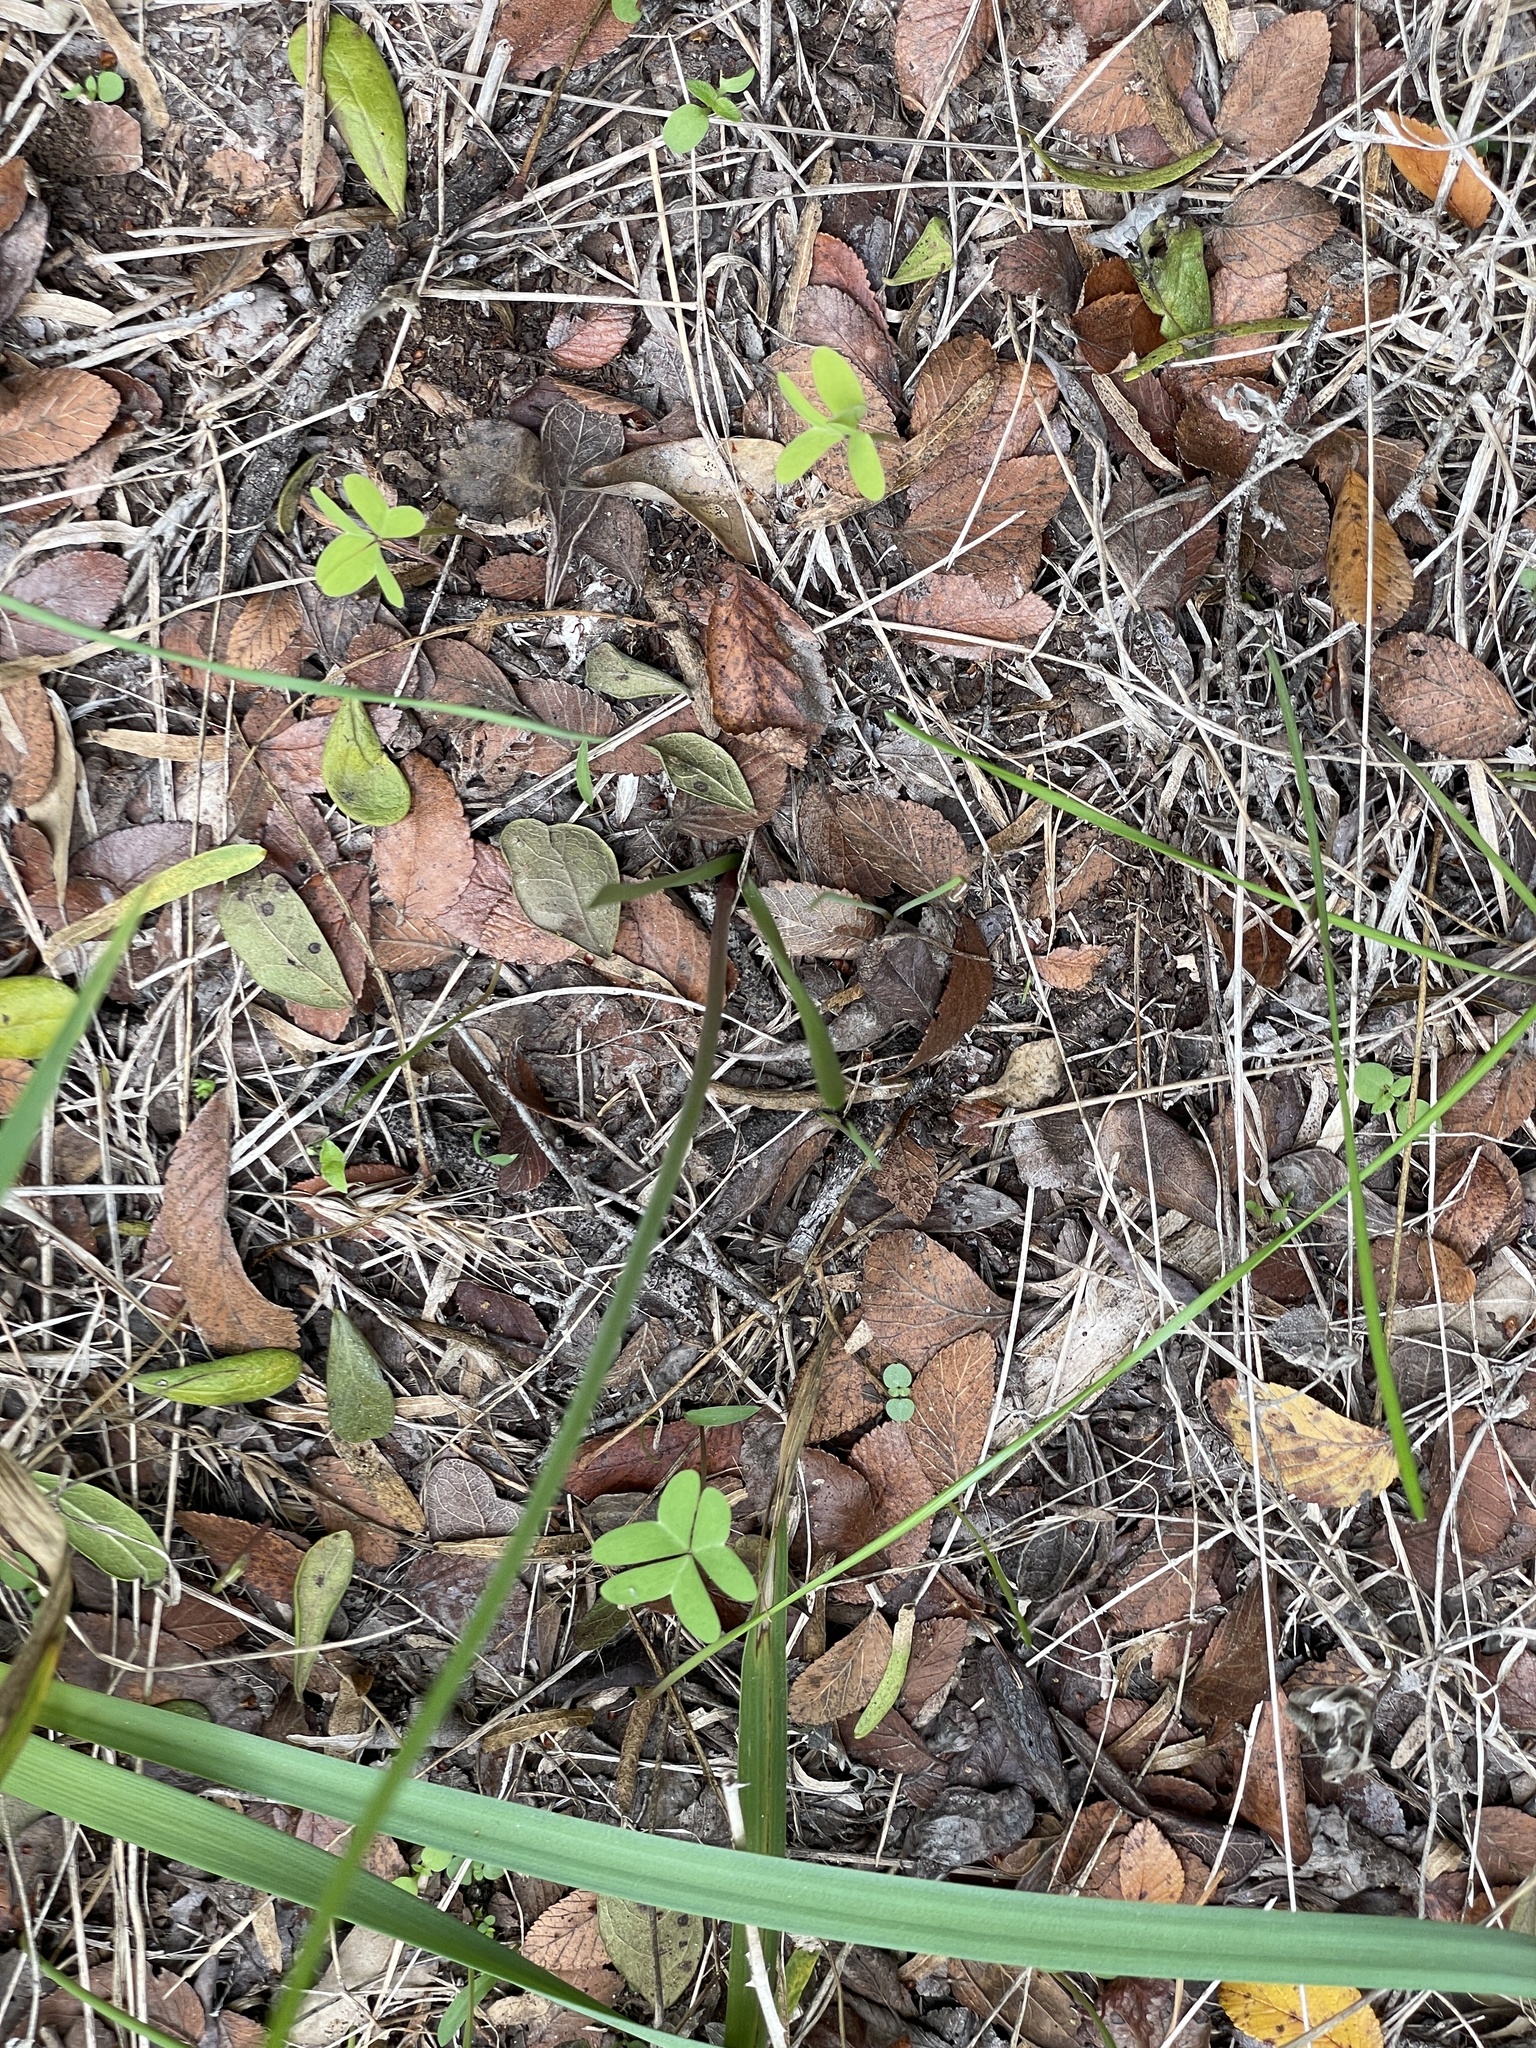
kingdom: Plantae
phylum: Tracheophyta
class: Liliopsida
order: Asparagales
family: Amaryllidaceae
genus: Nothoscordum
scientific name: Nothoscordum bivalve
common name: Crow-poison
